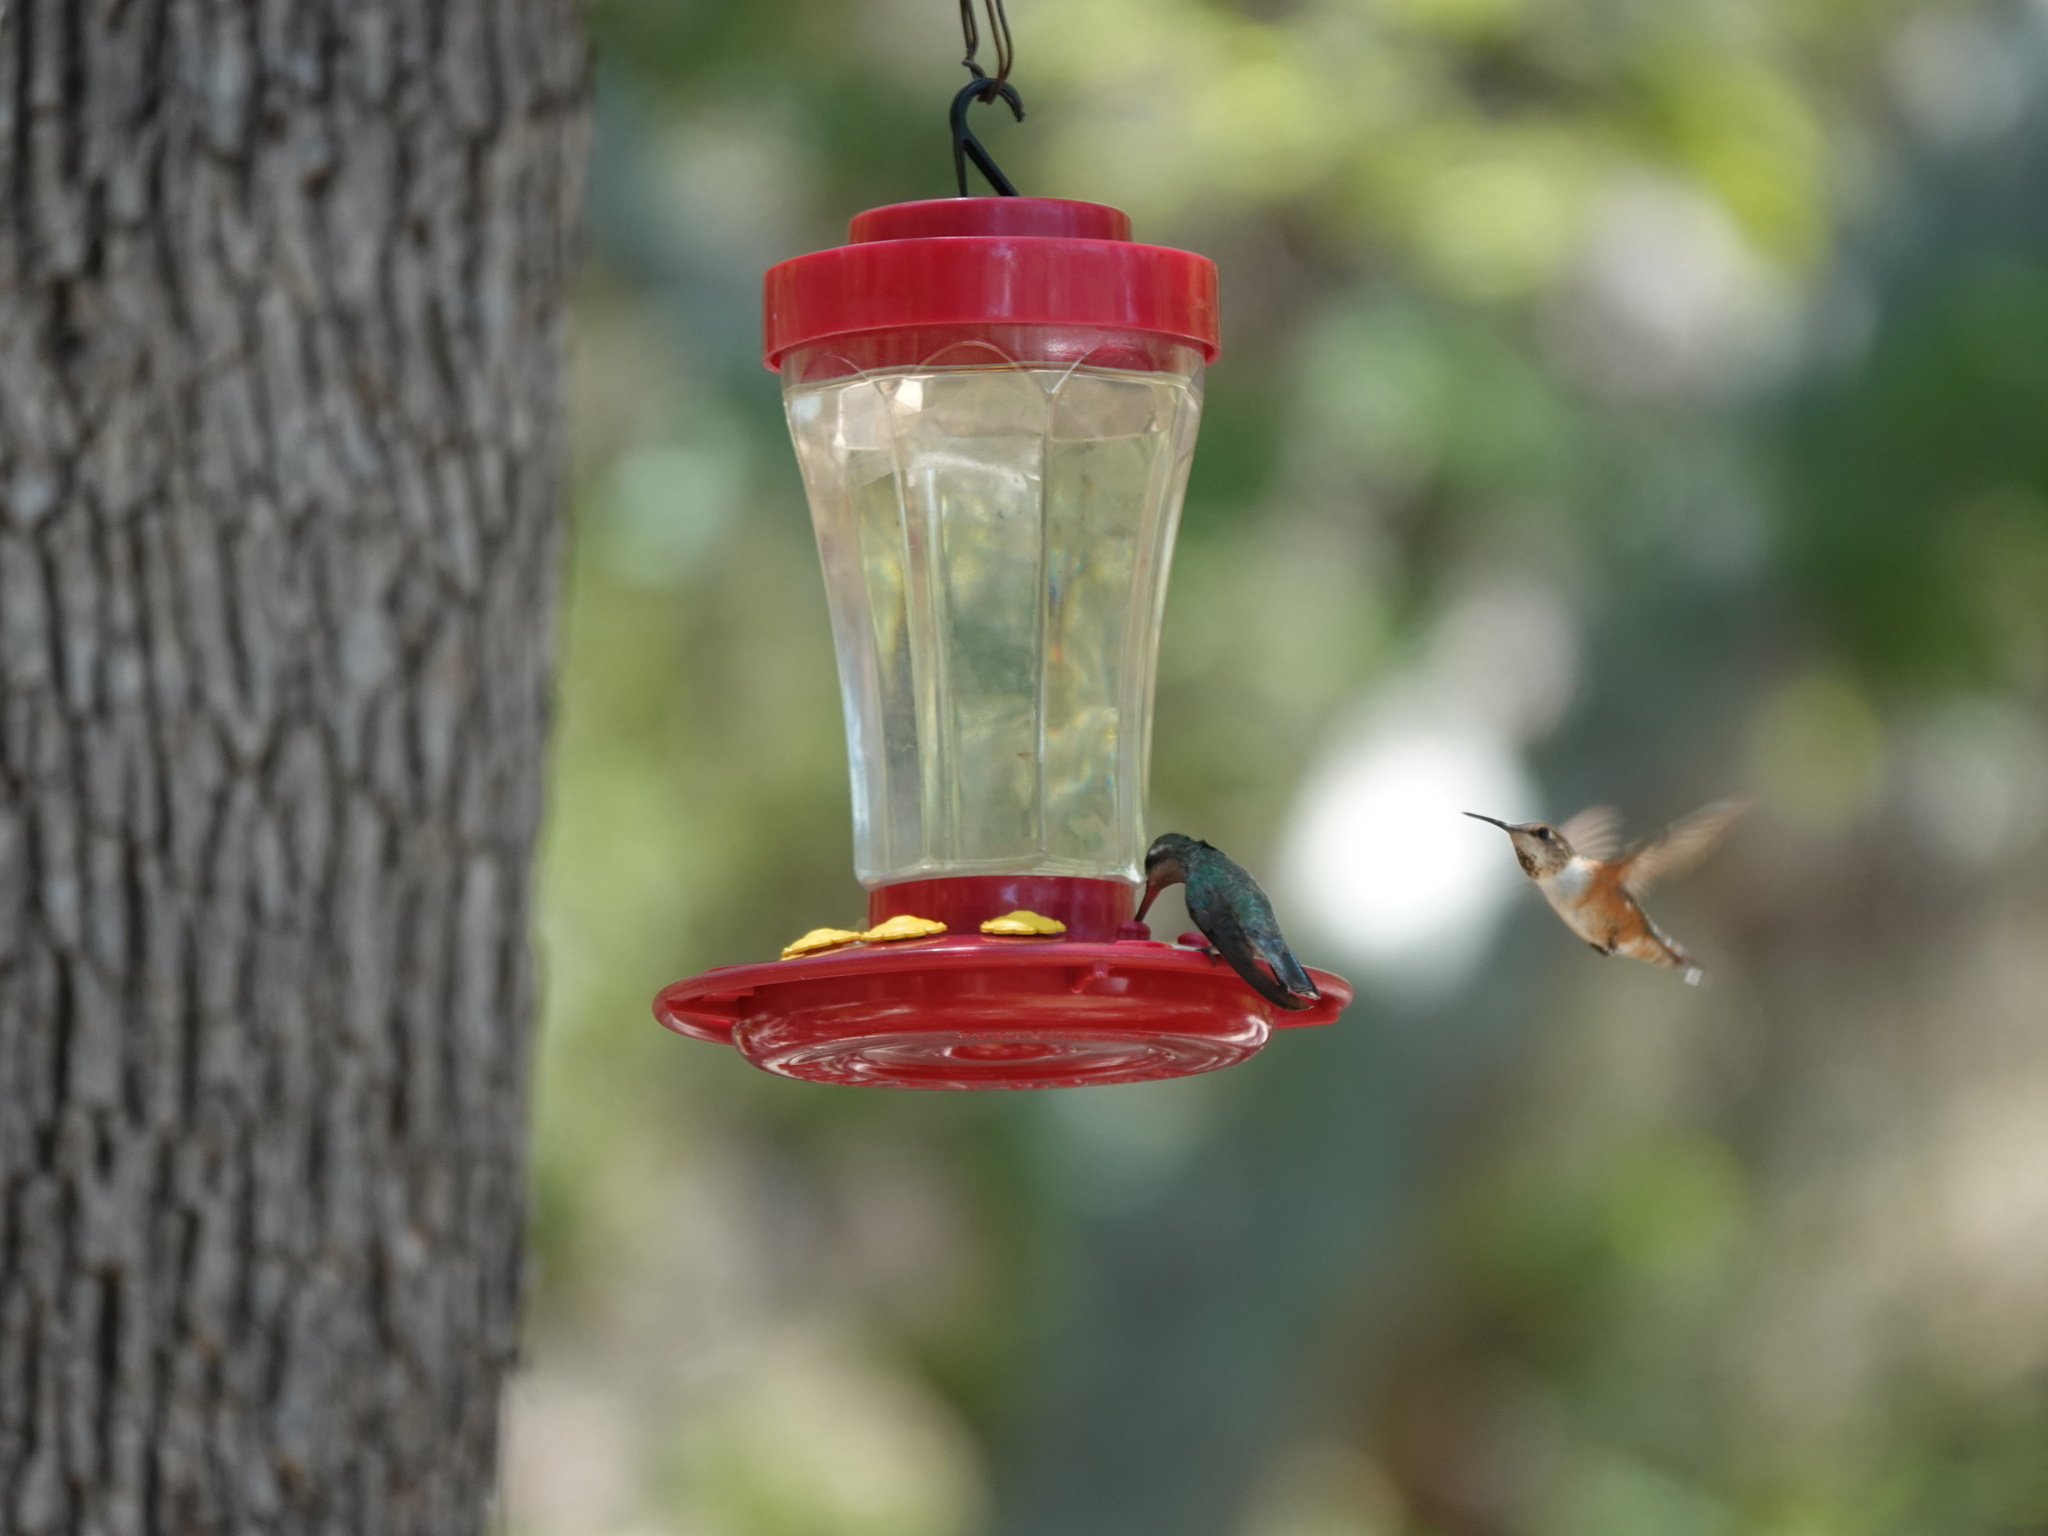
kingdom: Animalia
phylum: Chordata
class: Aves
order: Apodiformes
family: Trochilidae
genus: Selasphorus
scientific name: Selasphorus rufus
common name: Rufous hummingbird
